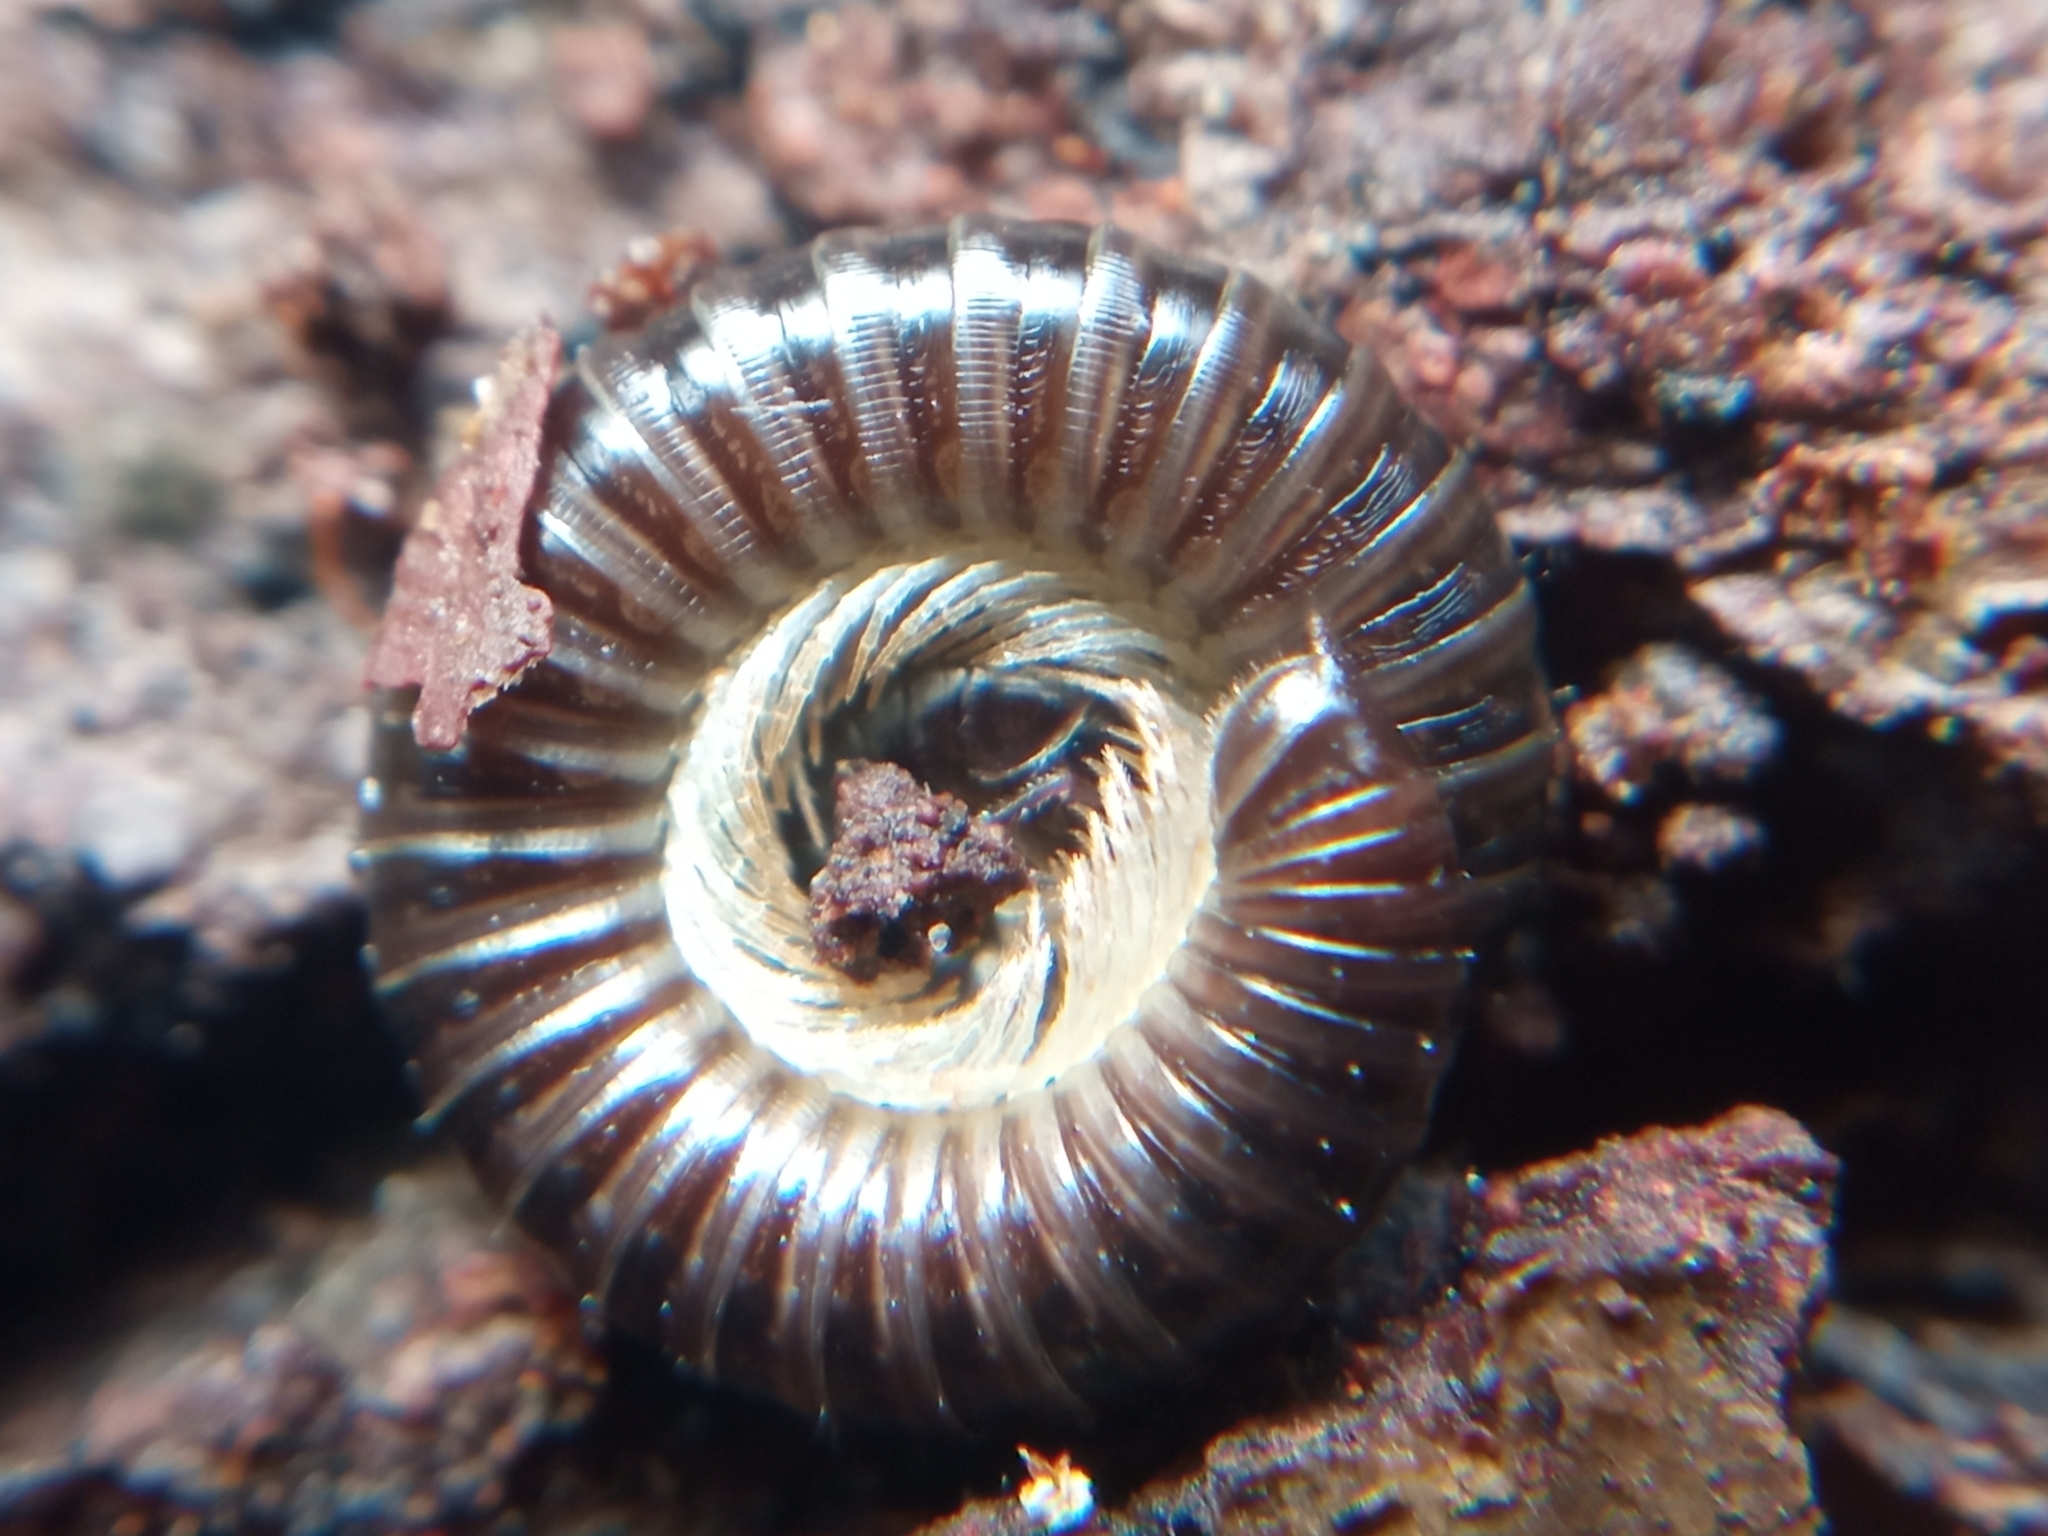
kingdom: Animalia
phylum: Arthropoda
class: Diplopoda
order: Julida
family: Julidae
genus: Tachypodoiulus
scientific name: Tachypodoiulus niger
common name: White-legged snake millipede
